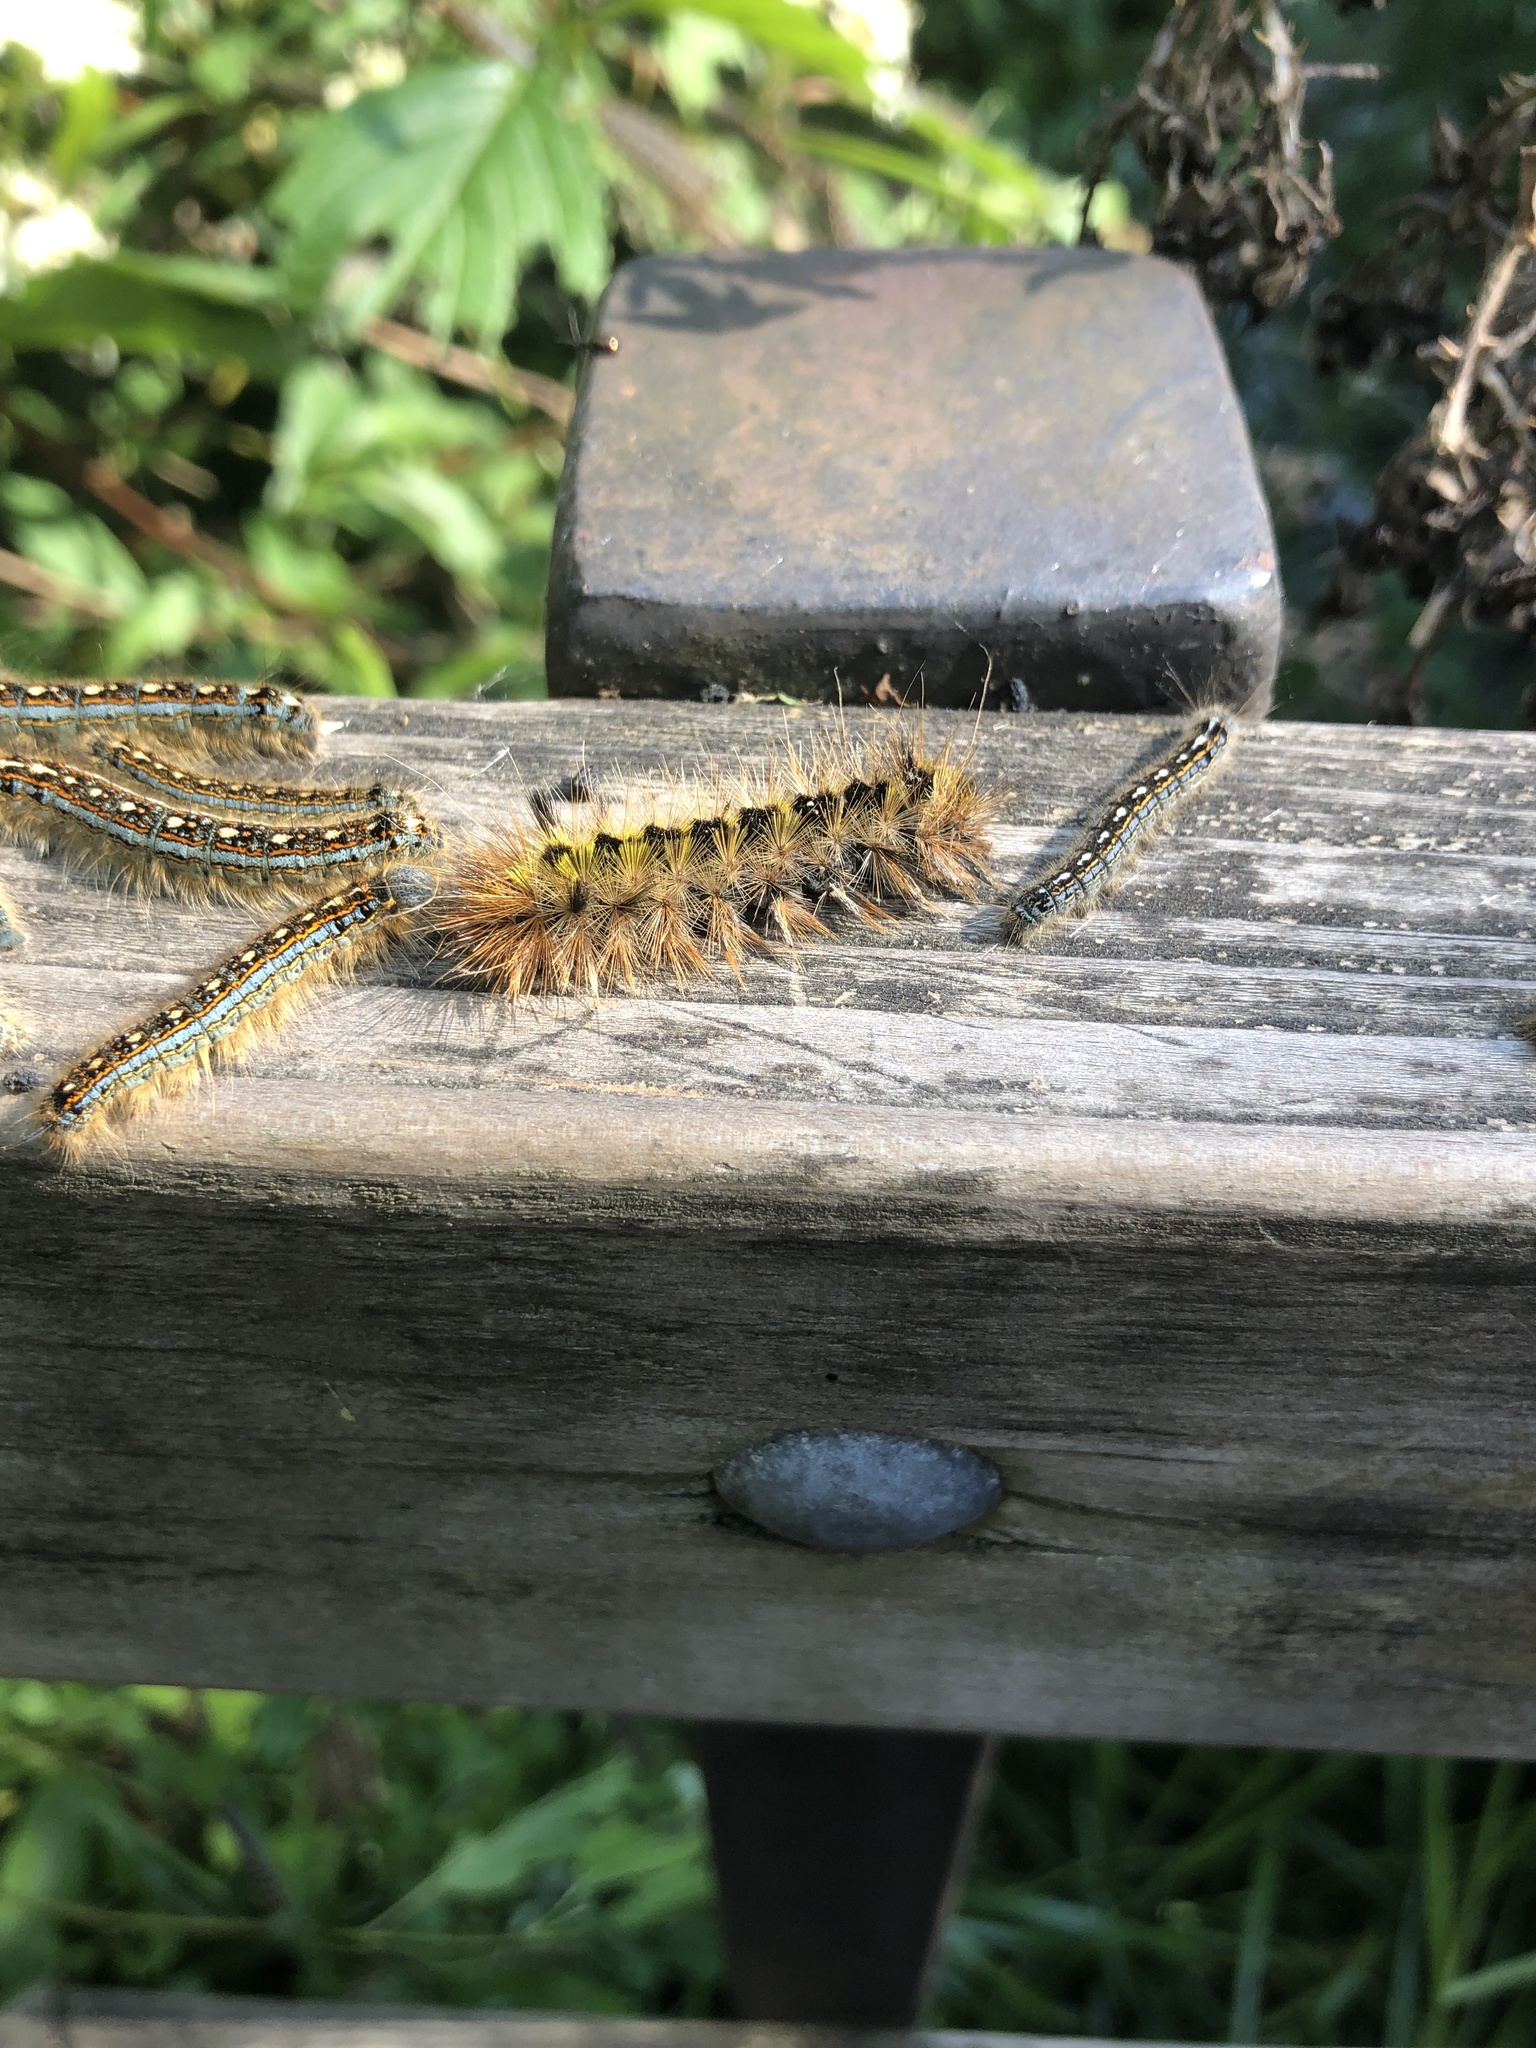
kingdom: Animalia
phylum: Arthropoda
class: Insecta
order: Lepidoptera
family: Erebidae
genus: Lophocampa
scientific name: Lophocampa argentata
